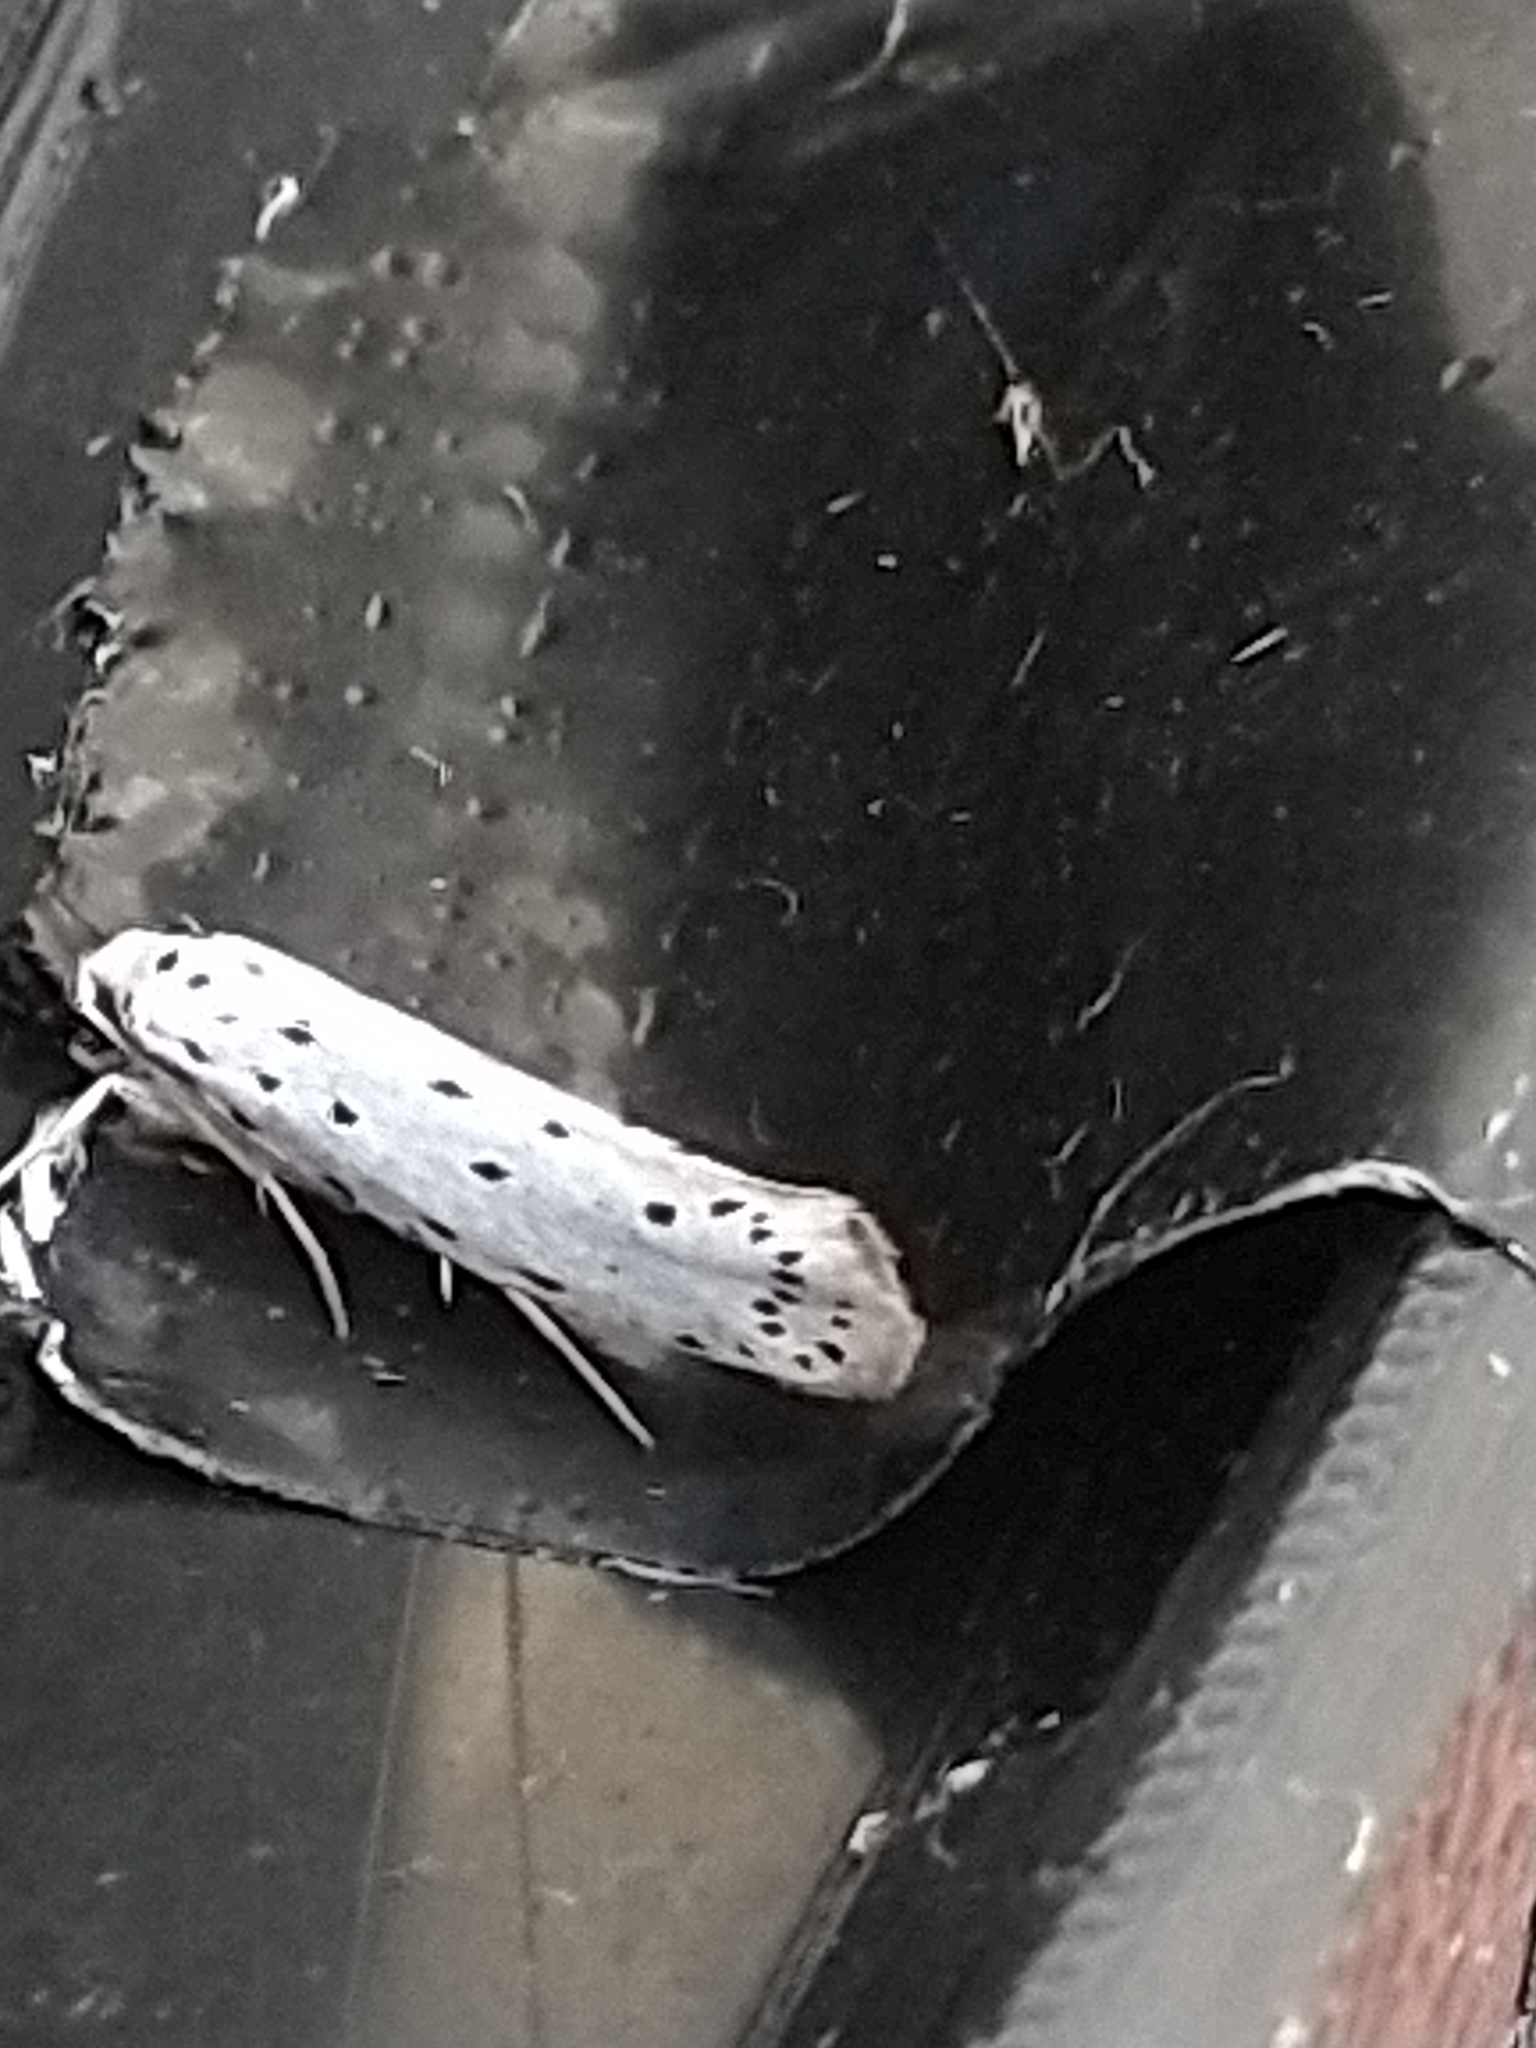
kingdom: Animalia
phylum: Arthropoda
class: Insecta
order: Lepidoptera
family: Yponomeutidae
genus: Yponomeuta
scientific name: Yponomeuta
